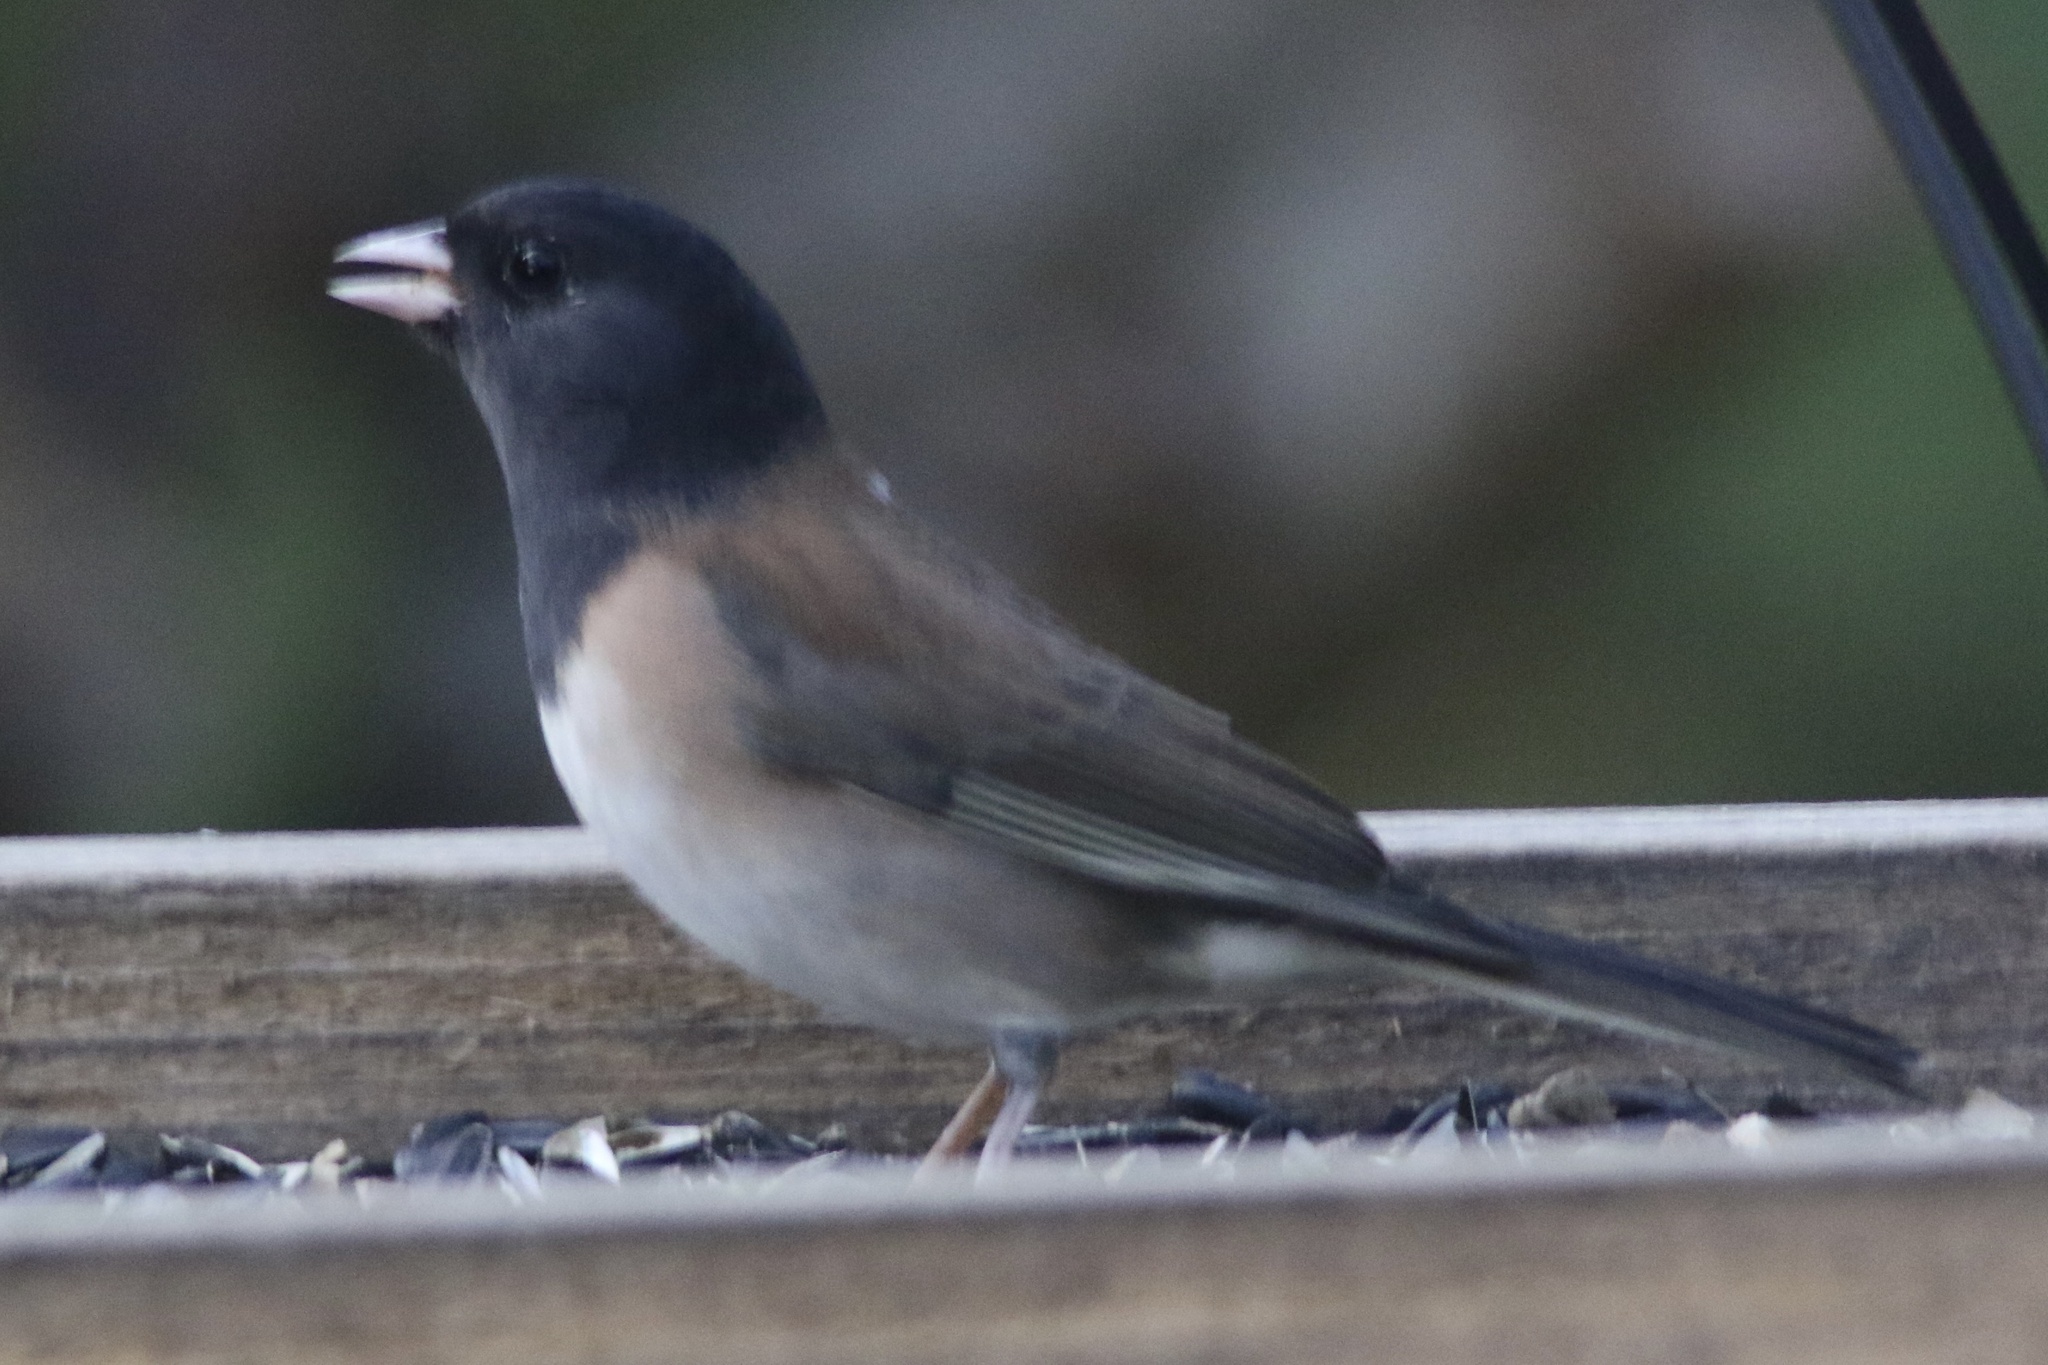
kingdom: Animalia
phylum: Chordata
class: Aves
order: Passeriformes
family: Passerellidae
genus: Junco
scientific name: Junco hyemalis
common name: Dark-eyed junco
